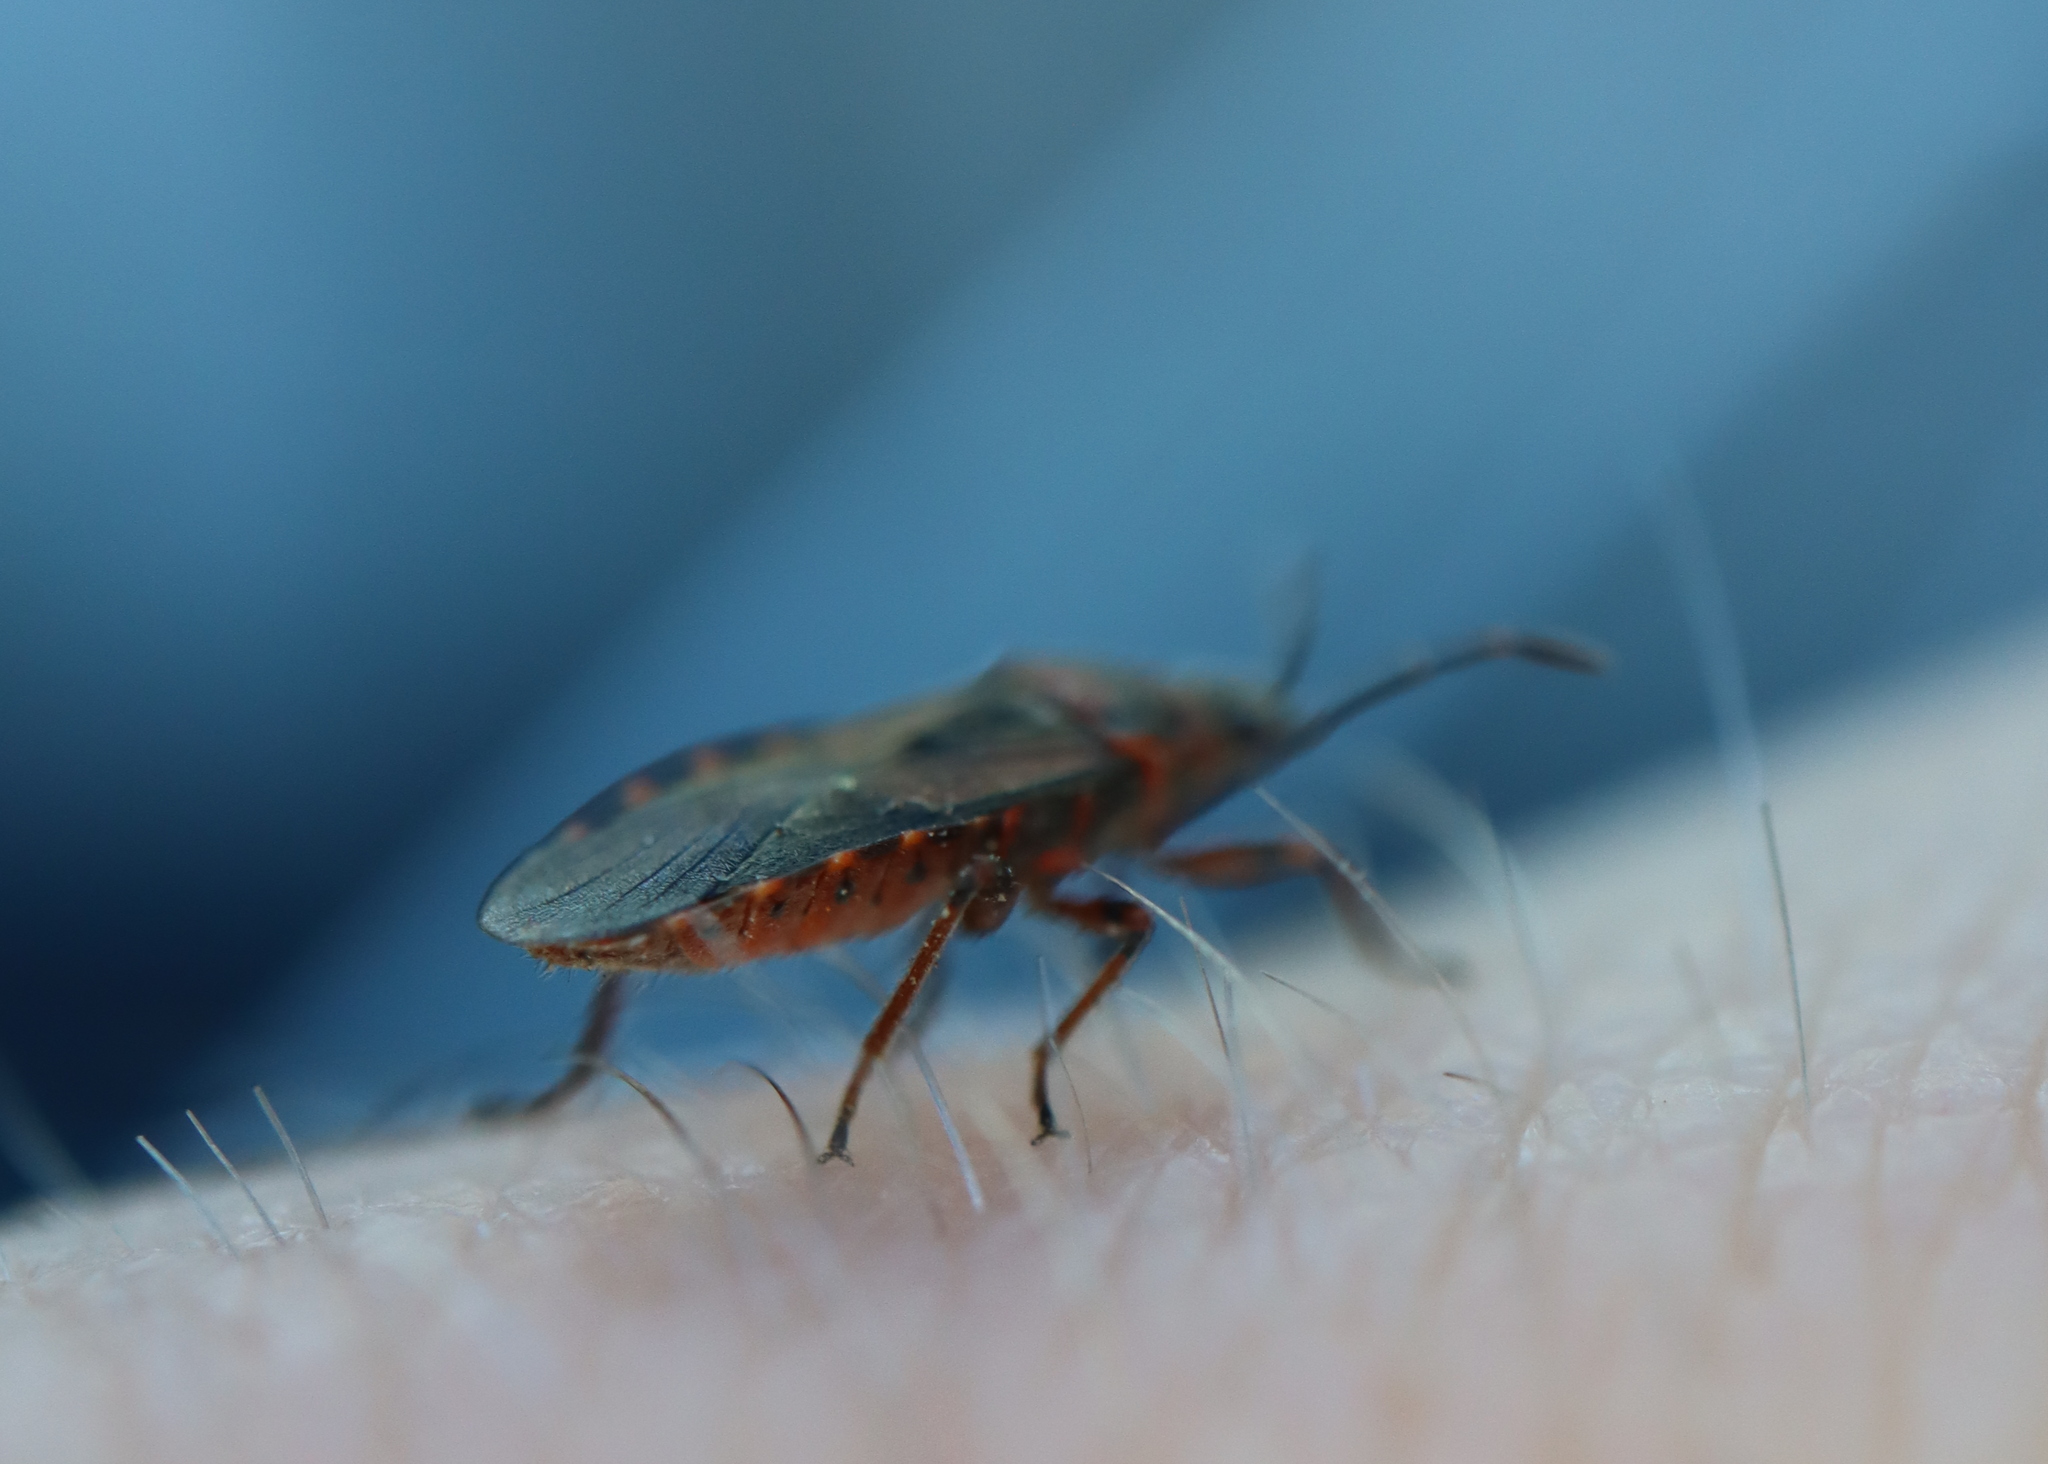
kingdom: Animalia
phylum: Arthropoda
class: Insecta
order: Hemiptera
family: Lygaeidae
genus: Arocatus
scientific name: Arocatus melanocephalus
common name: Lygaeid bug
